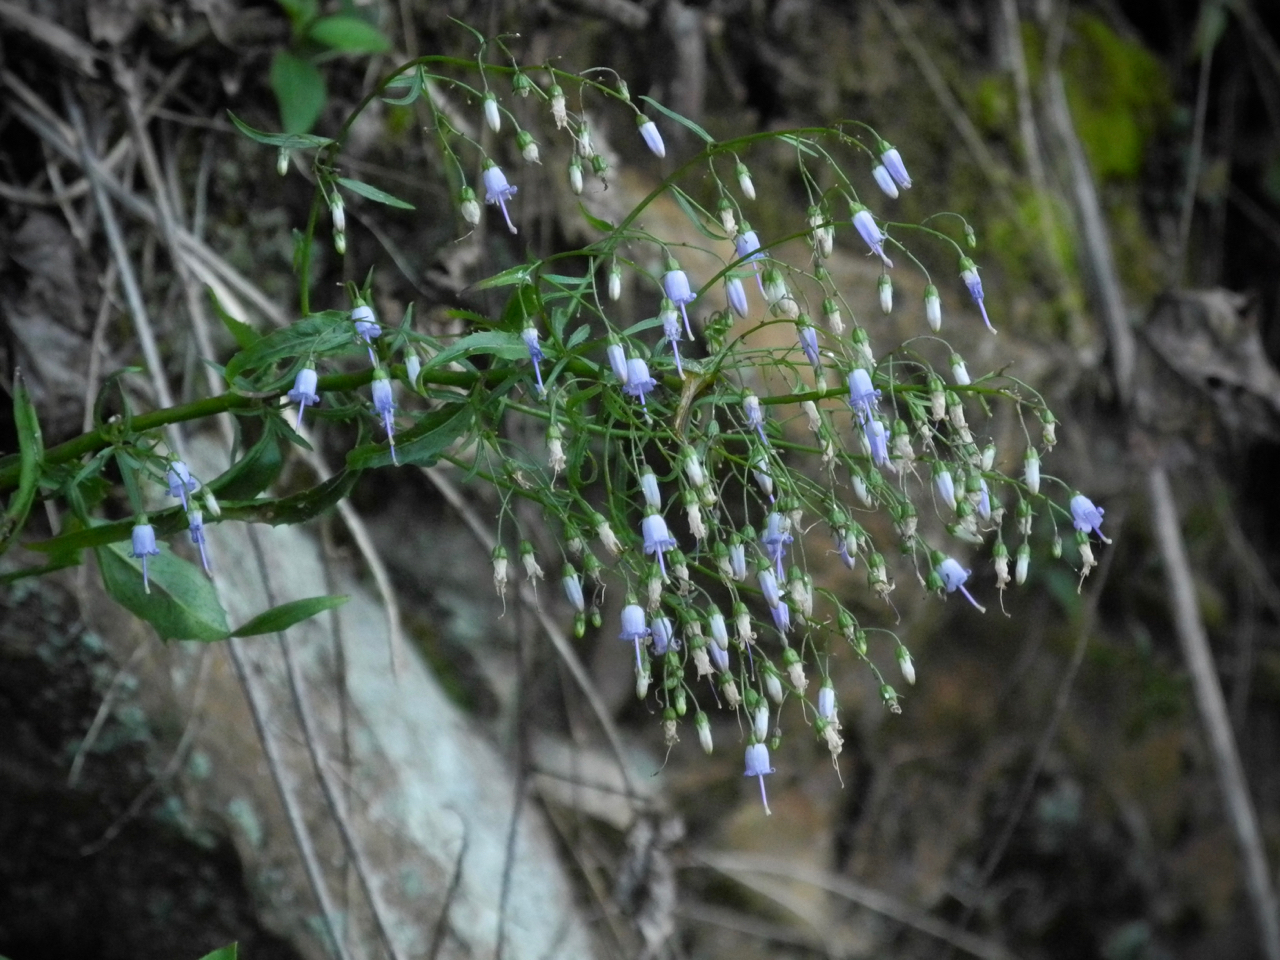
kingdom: Plantae
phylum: Tracheophyta
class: Magnoliopsida
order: Asterales
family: Campanulaceae
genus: Campanula
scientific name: Campanula divaricata
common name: Appalachian bellflower
